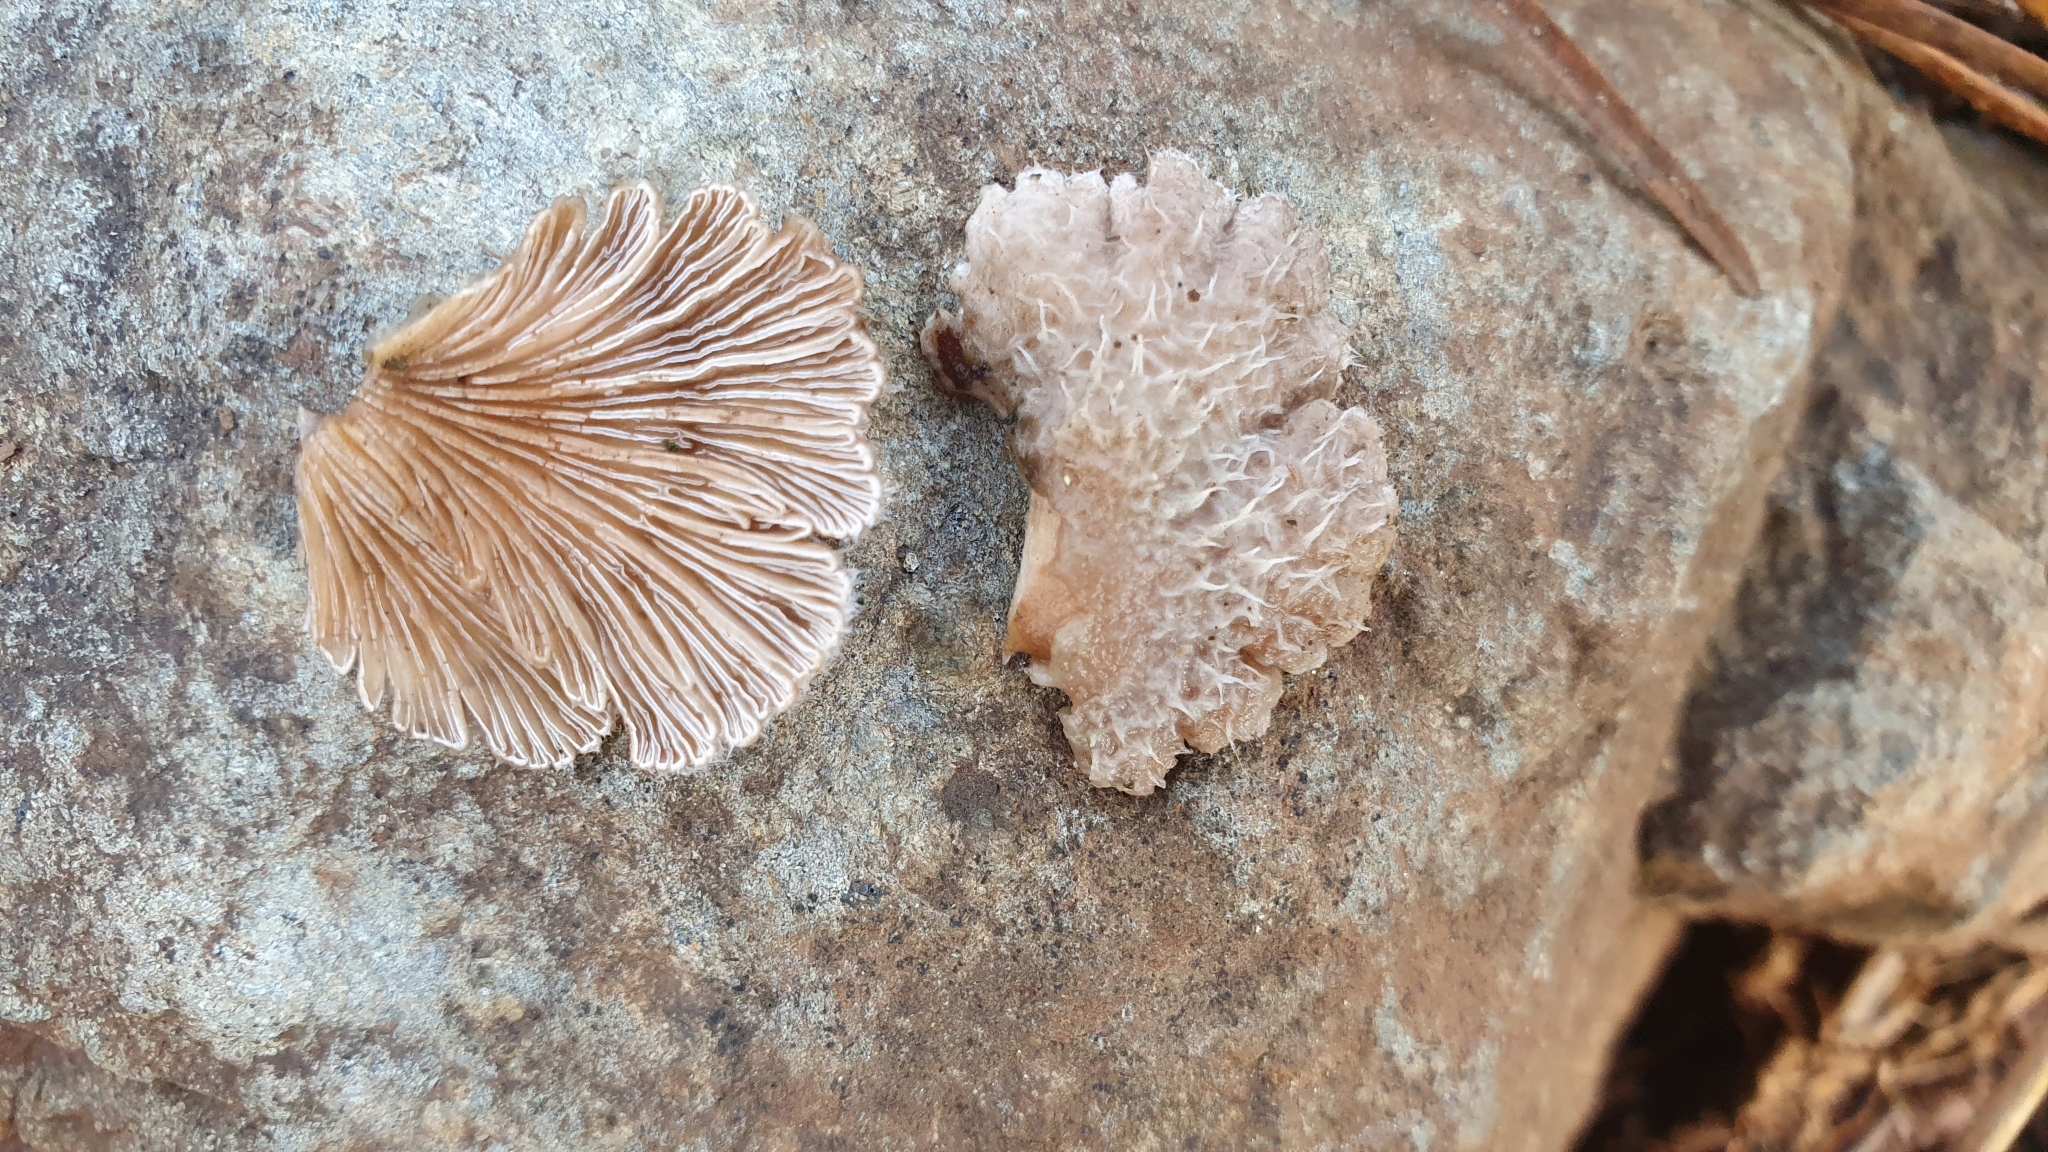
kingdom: Fungi
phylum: Basidiomycota
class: Agaricomycetes
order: Agaricales
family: Schizophyllaceae
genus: Schizophyllum
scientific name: Schizophyllum commune
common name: Common porecrust
